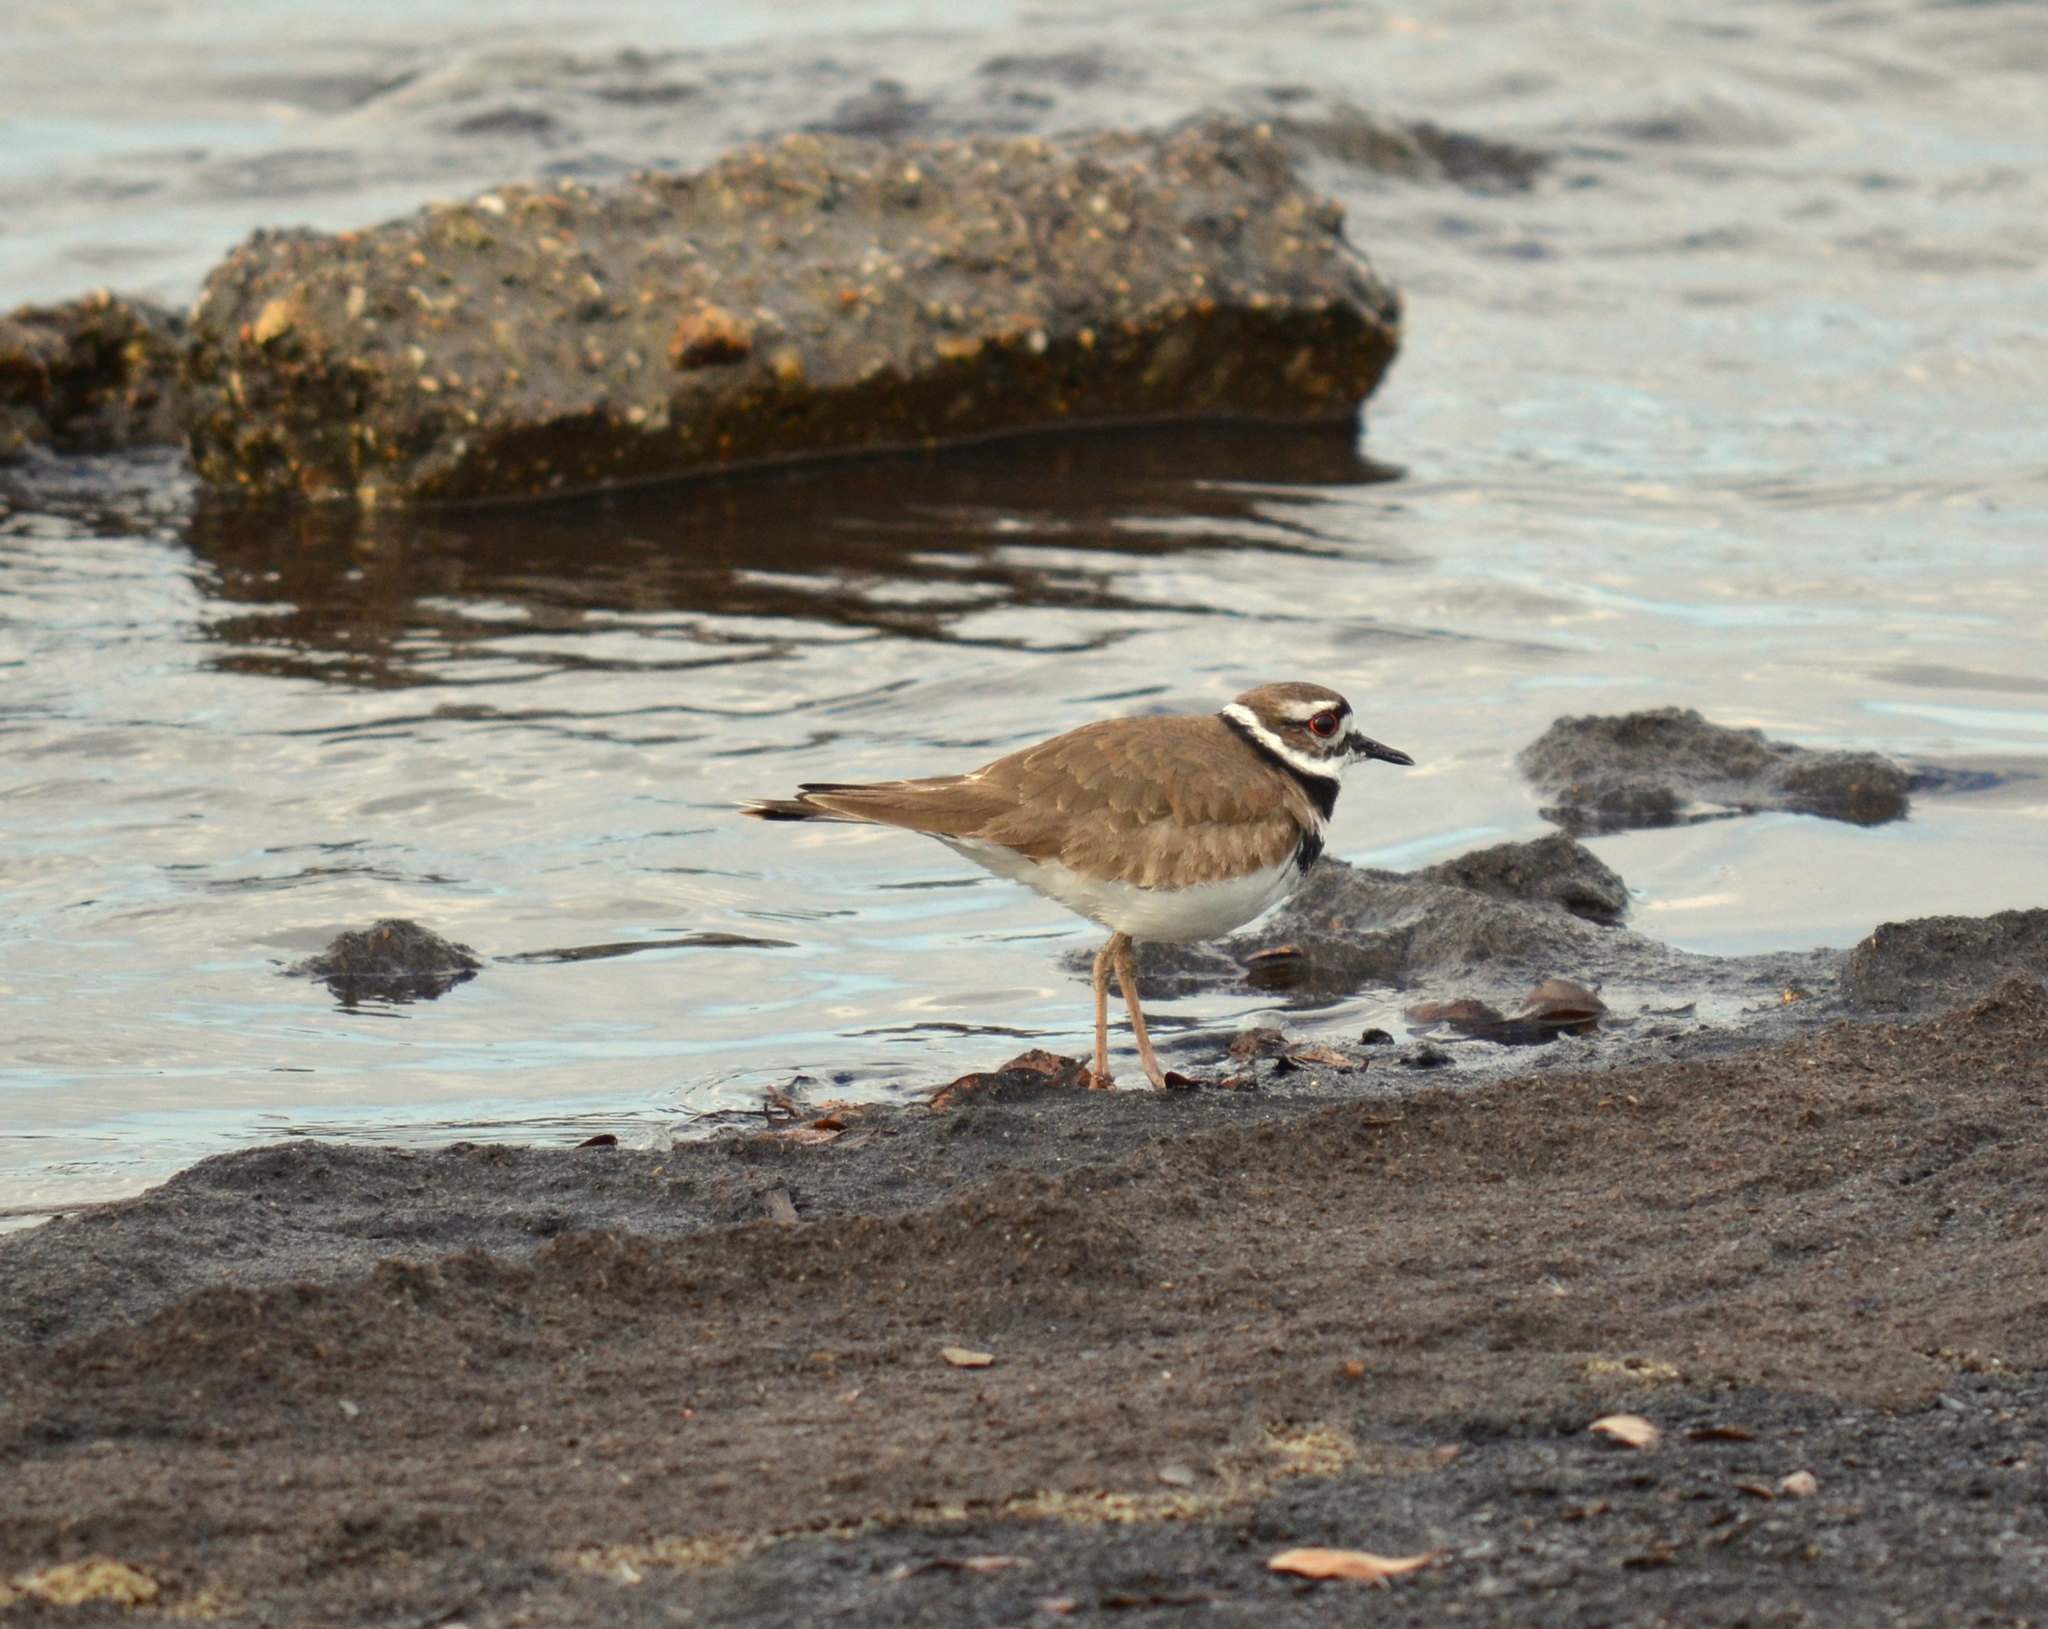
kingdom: Animalia
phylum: Chordata
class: Aves
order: Charadriiformes
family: Charadriidae
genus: Charadrius
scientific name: Charadrius vociferus
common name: Killdeer
